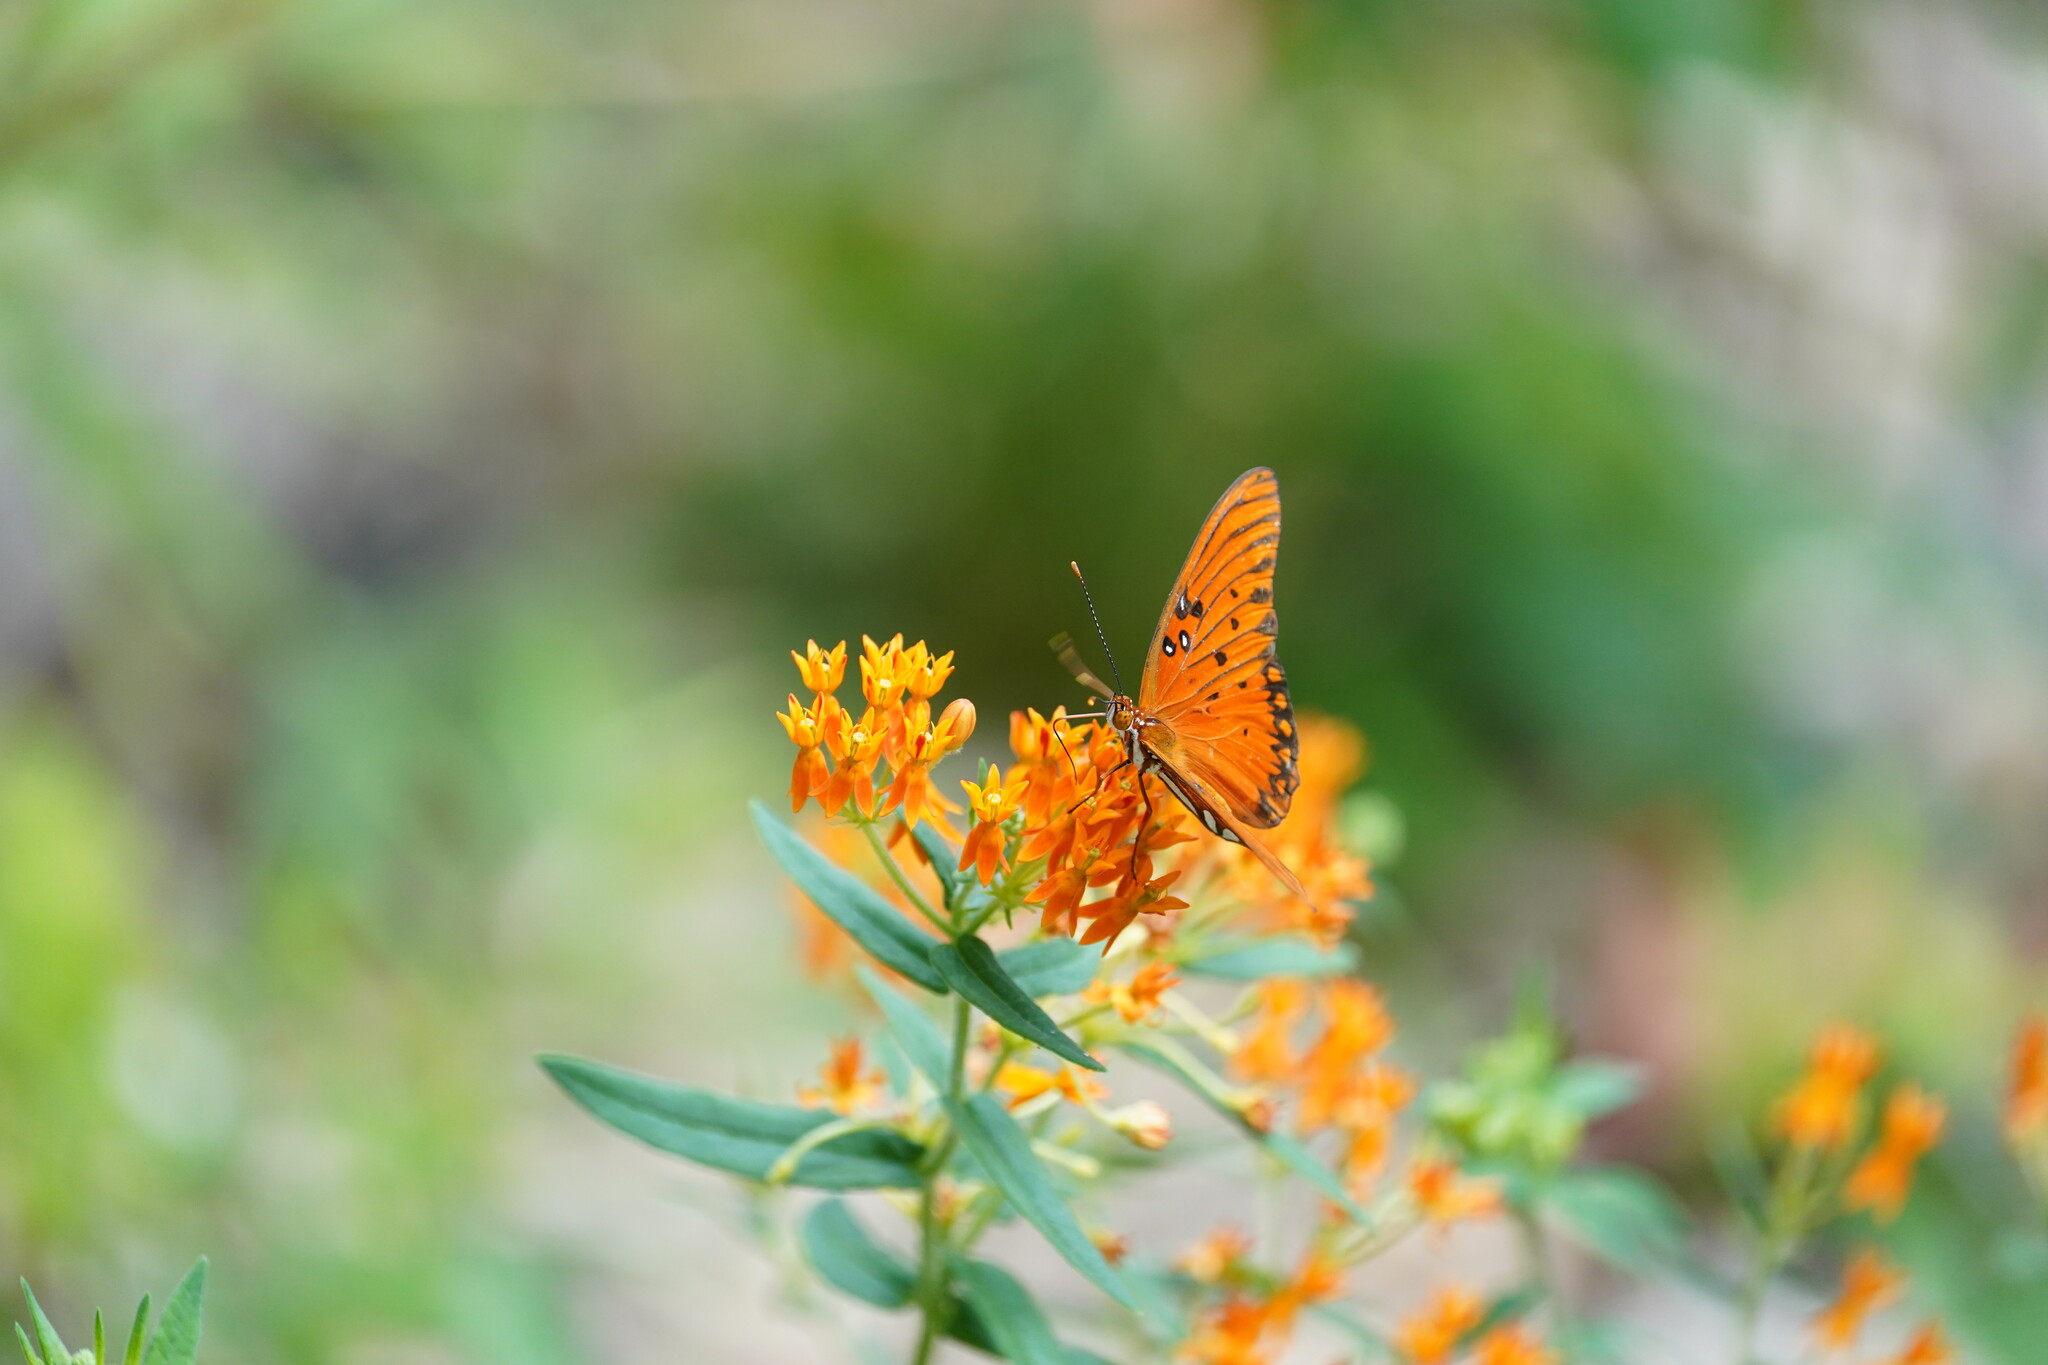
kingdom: Animalia
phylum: Arthropoda
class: Insecta
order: Lepidoptera
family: Nymphalidae
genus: Dione
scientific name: Dione vanillae
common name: Gulf fritillary
